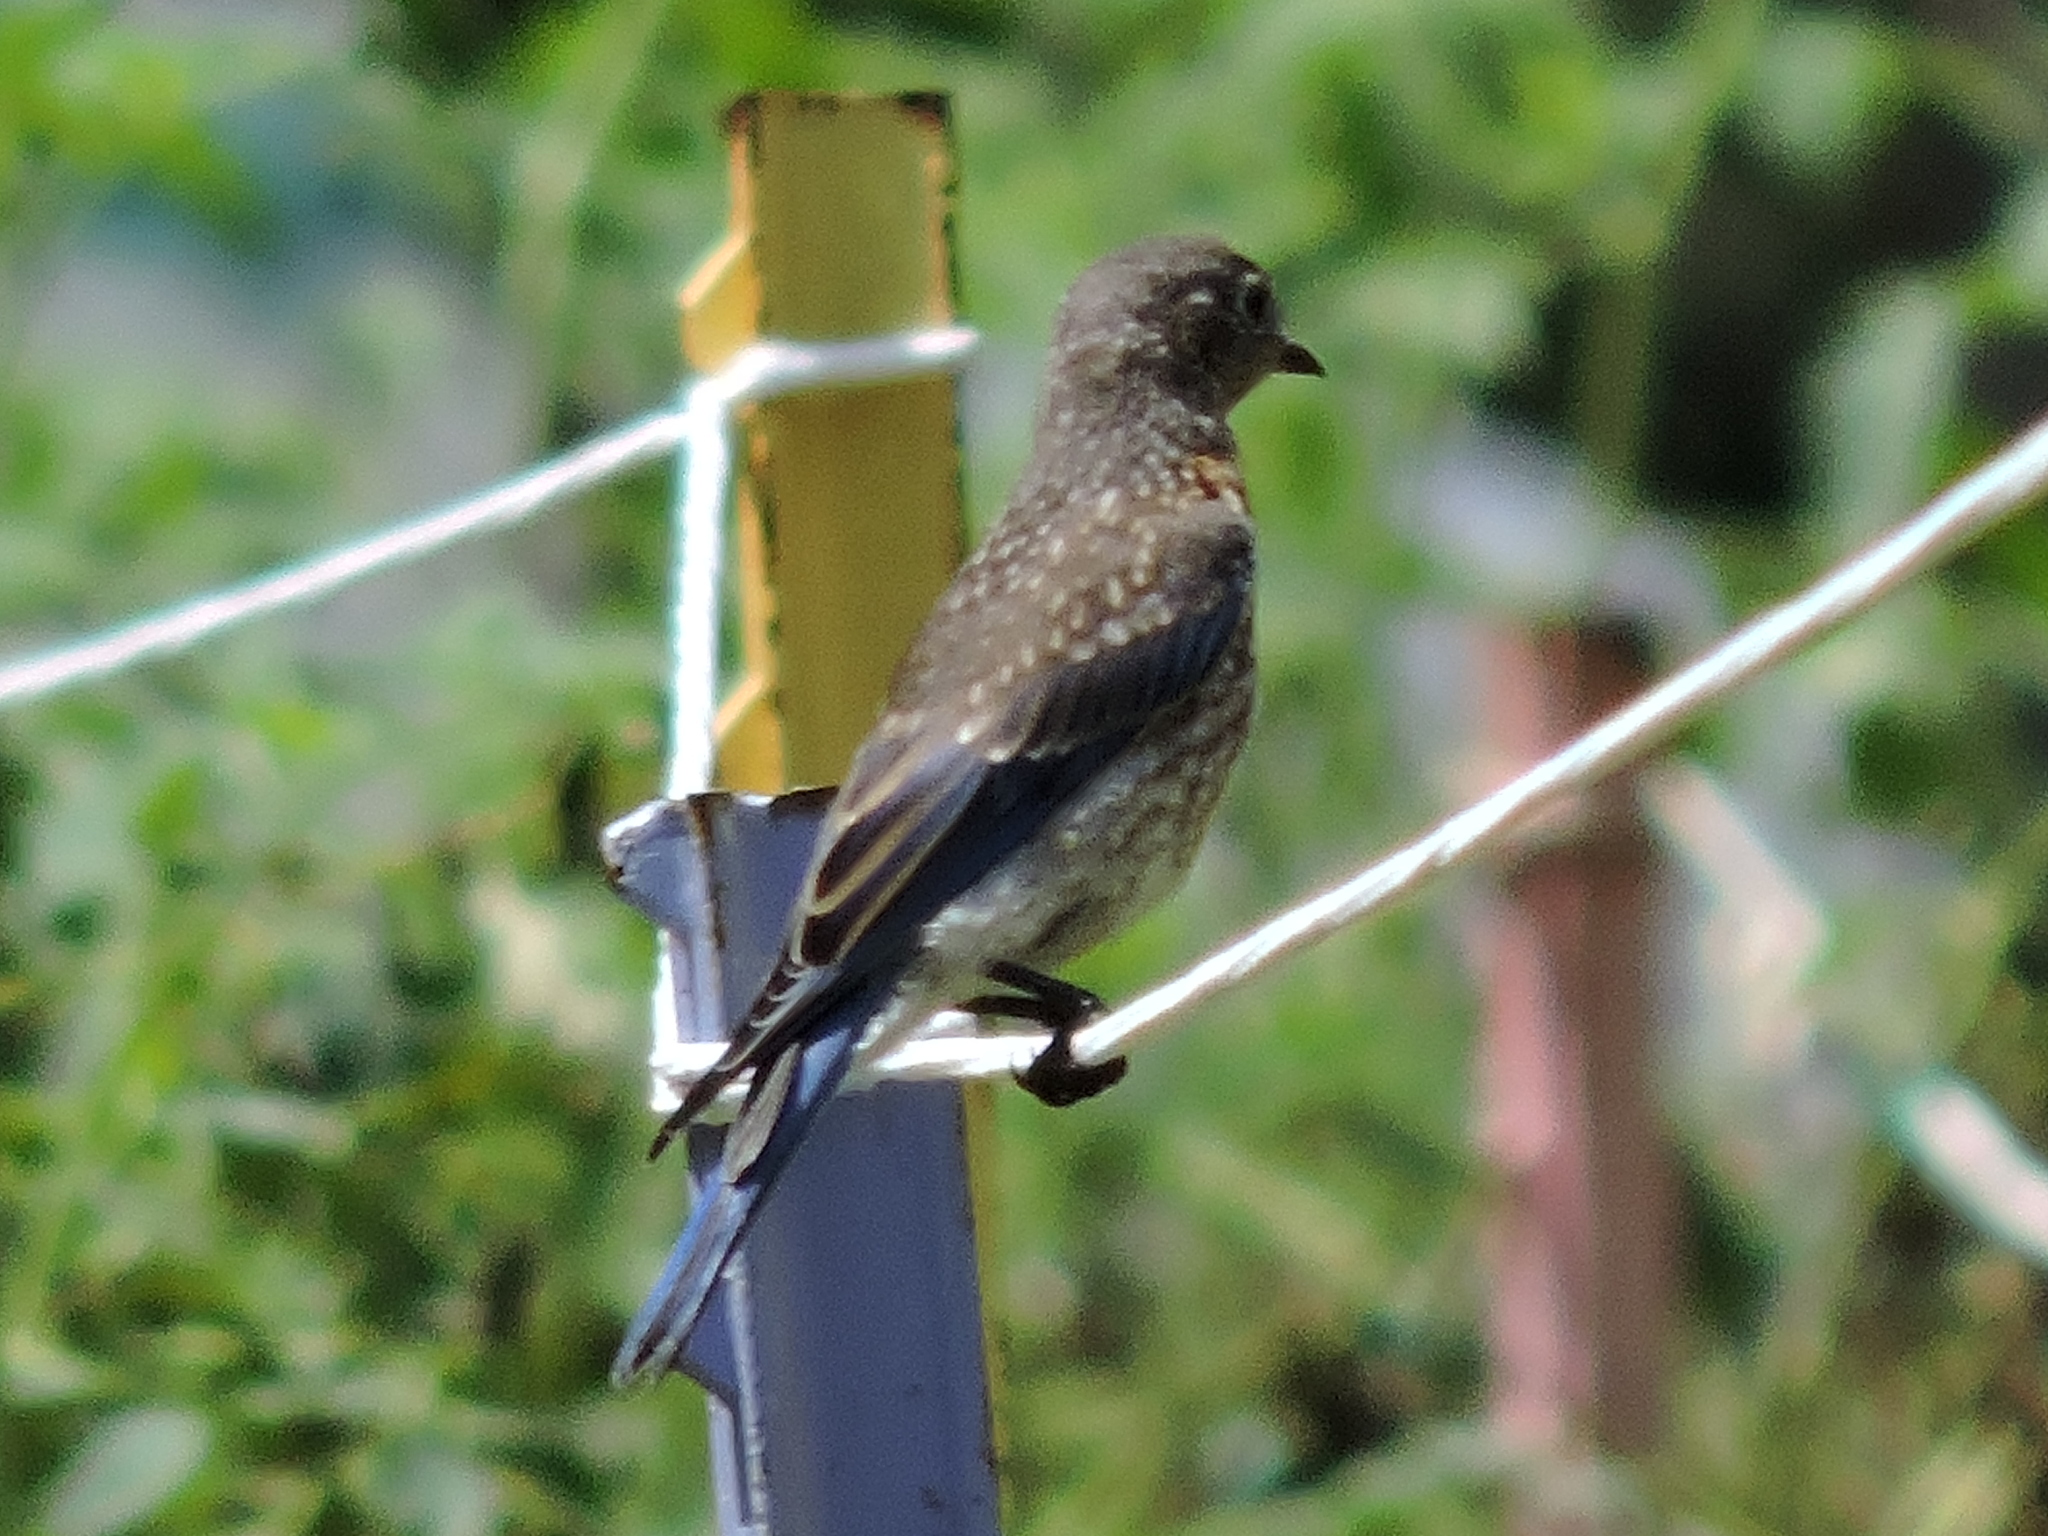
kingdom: Animalia
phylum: Chordata
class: Aves
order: Passeriformes
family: Turdidae
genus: Sialia
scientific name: Sialia sialis
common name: Eastern bluebird
